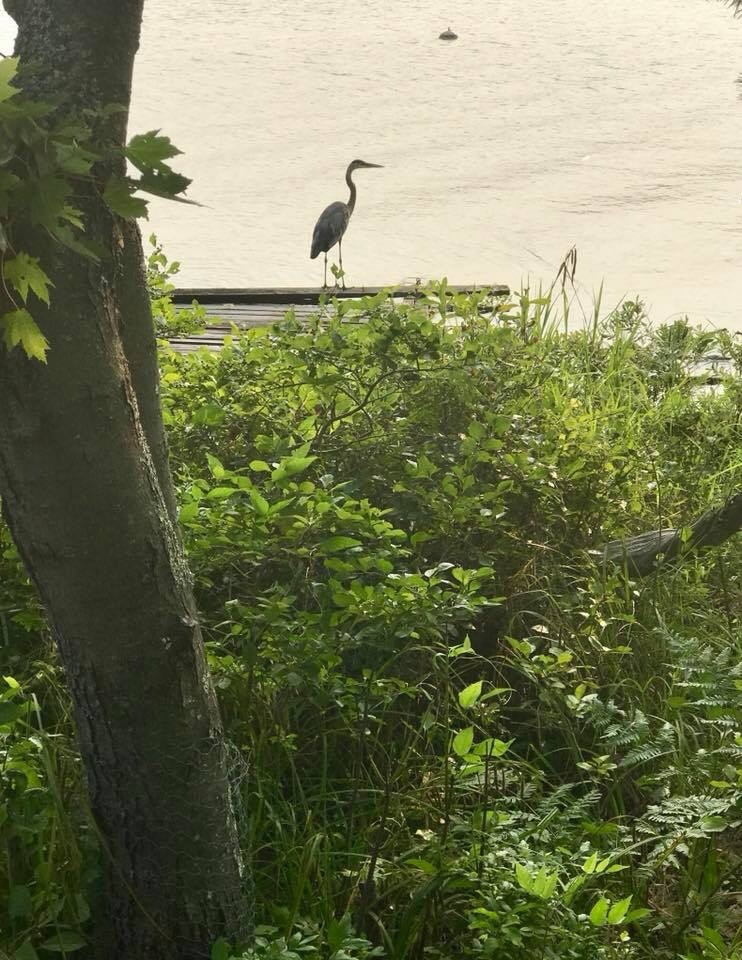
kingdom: Animalia
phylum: Chordata
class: Aves
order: Pelecaniformes
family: Ardeidae
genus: Ardea
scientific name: Ardea herodias
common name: Great blue heron
